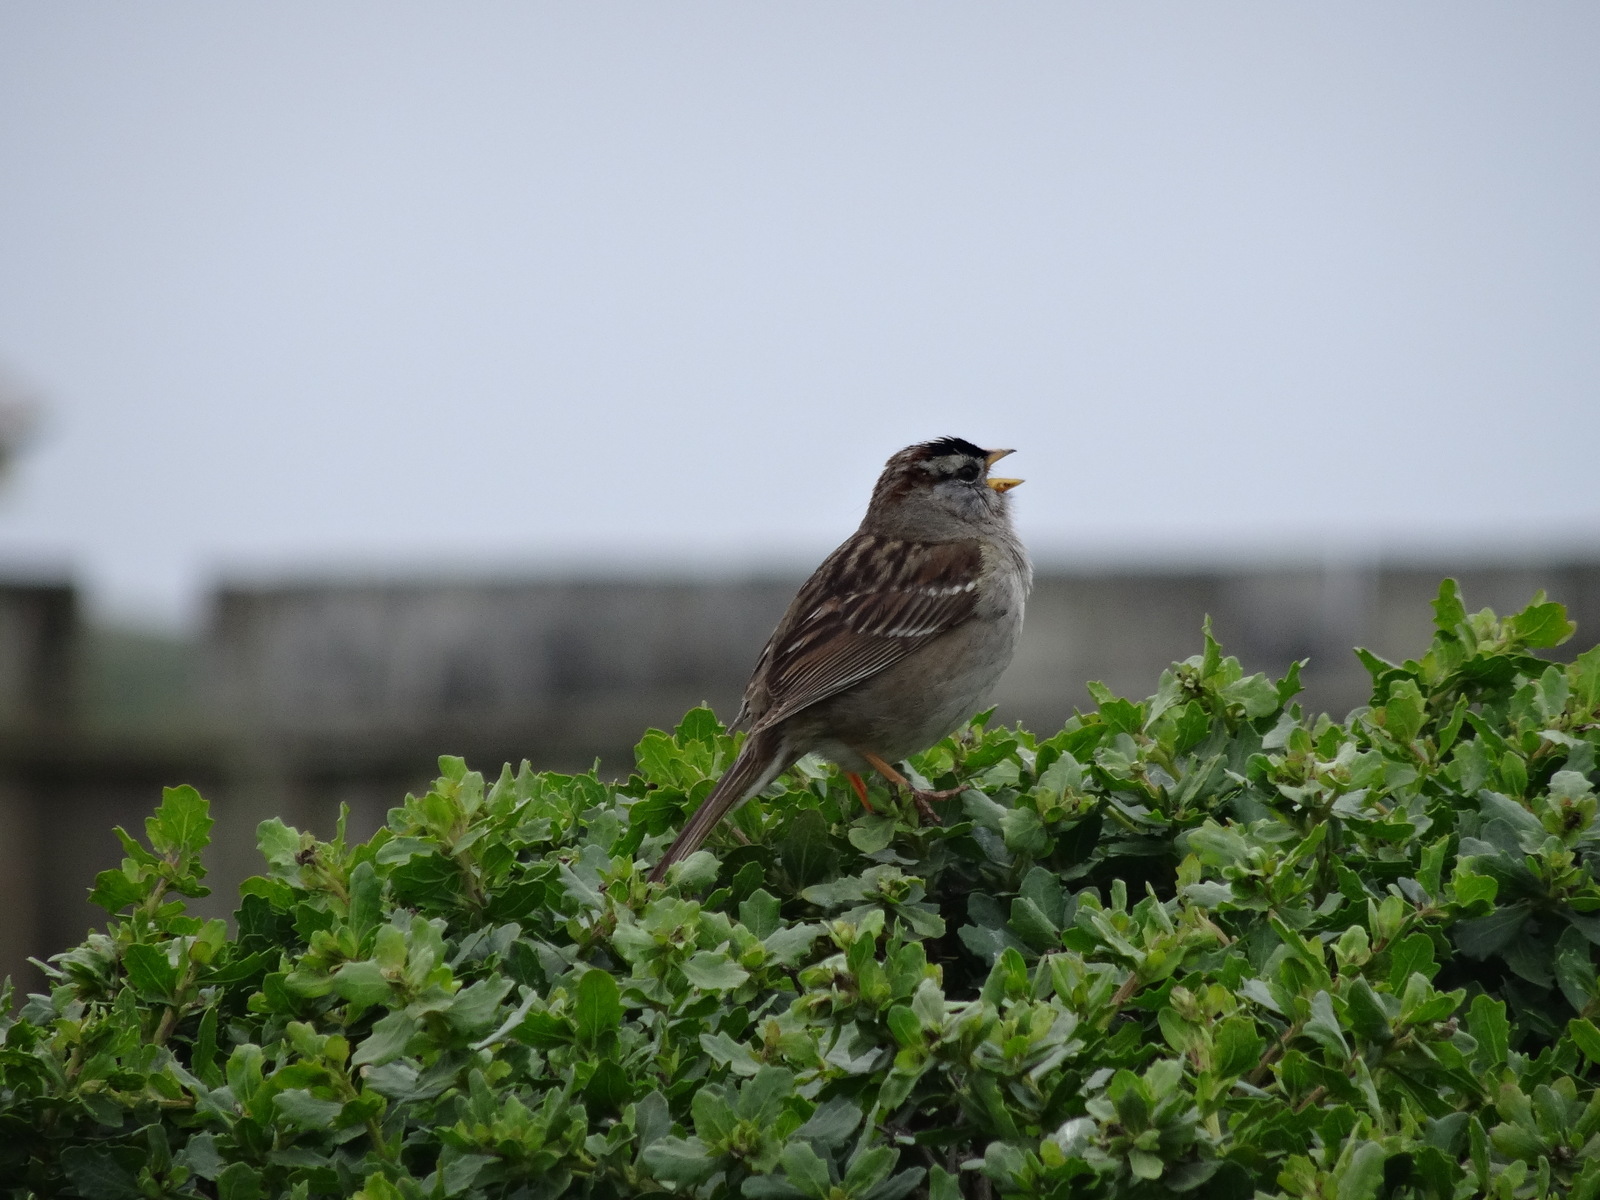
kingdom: Animalia
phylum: Chordata
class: Aves
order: Passeriformes
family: Passerellidae
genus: Zonotrichia
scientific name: Zonotrichia leucophrys
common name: White-crowned sparrow
